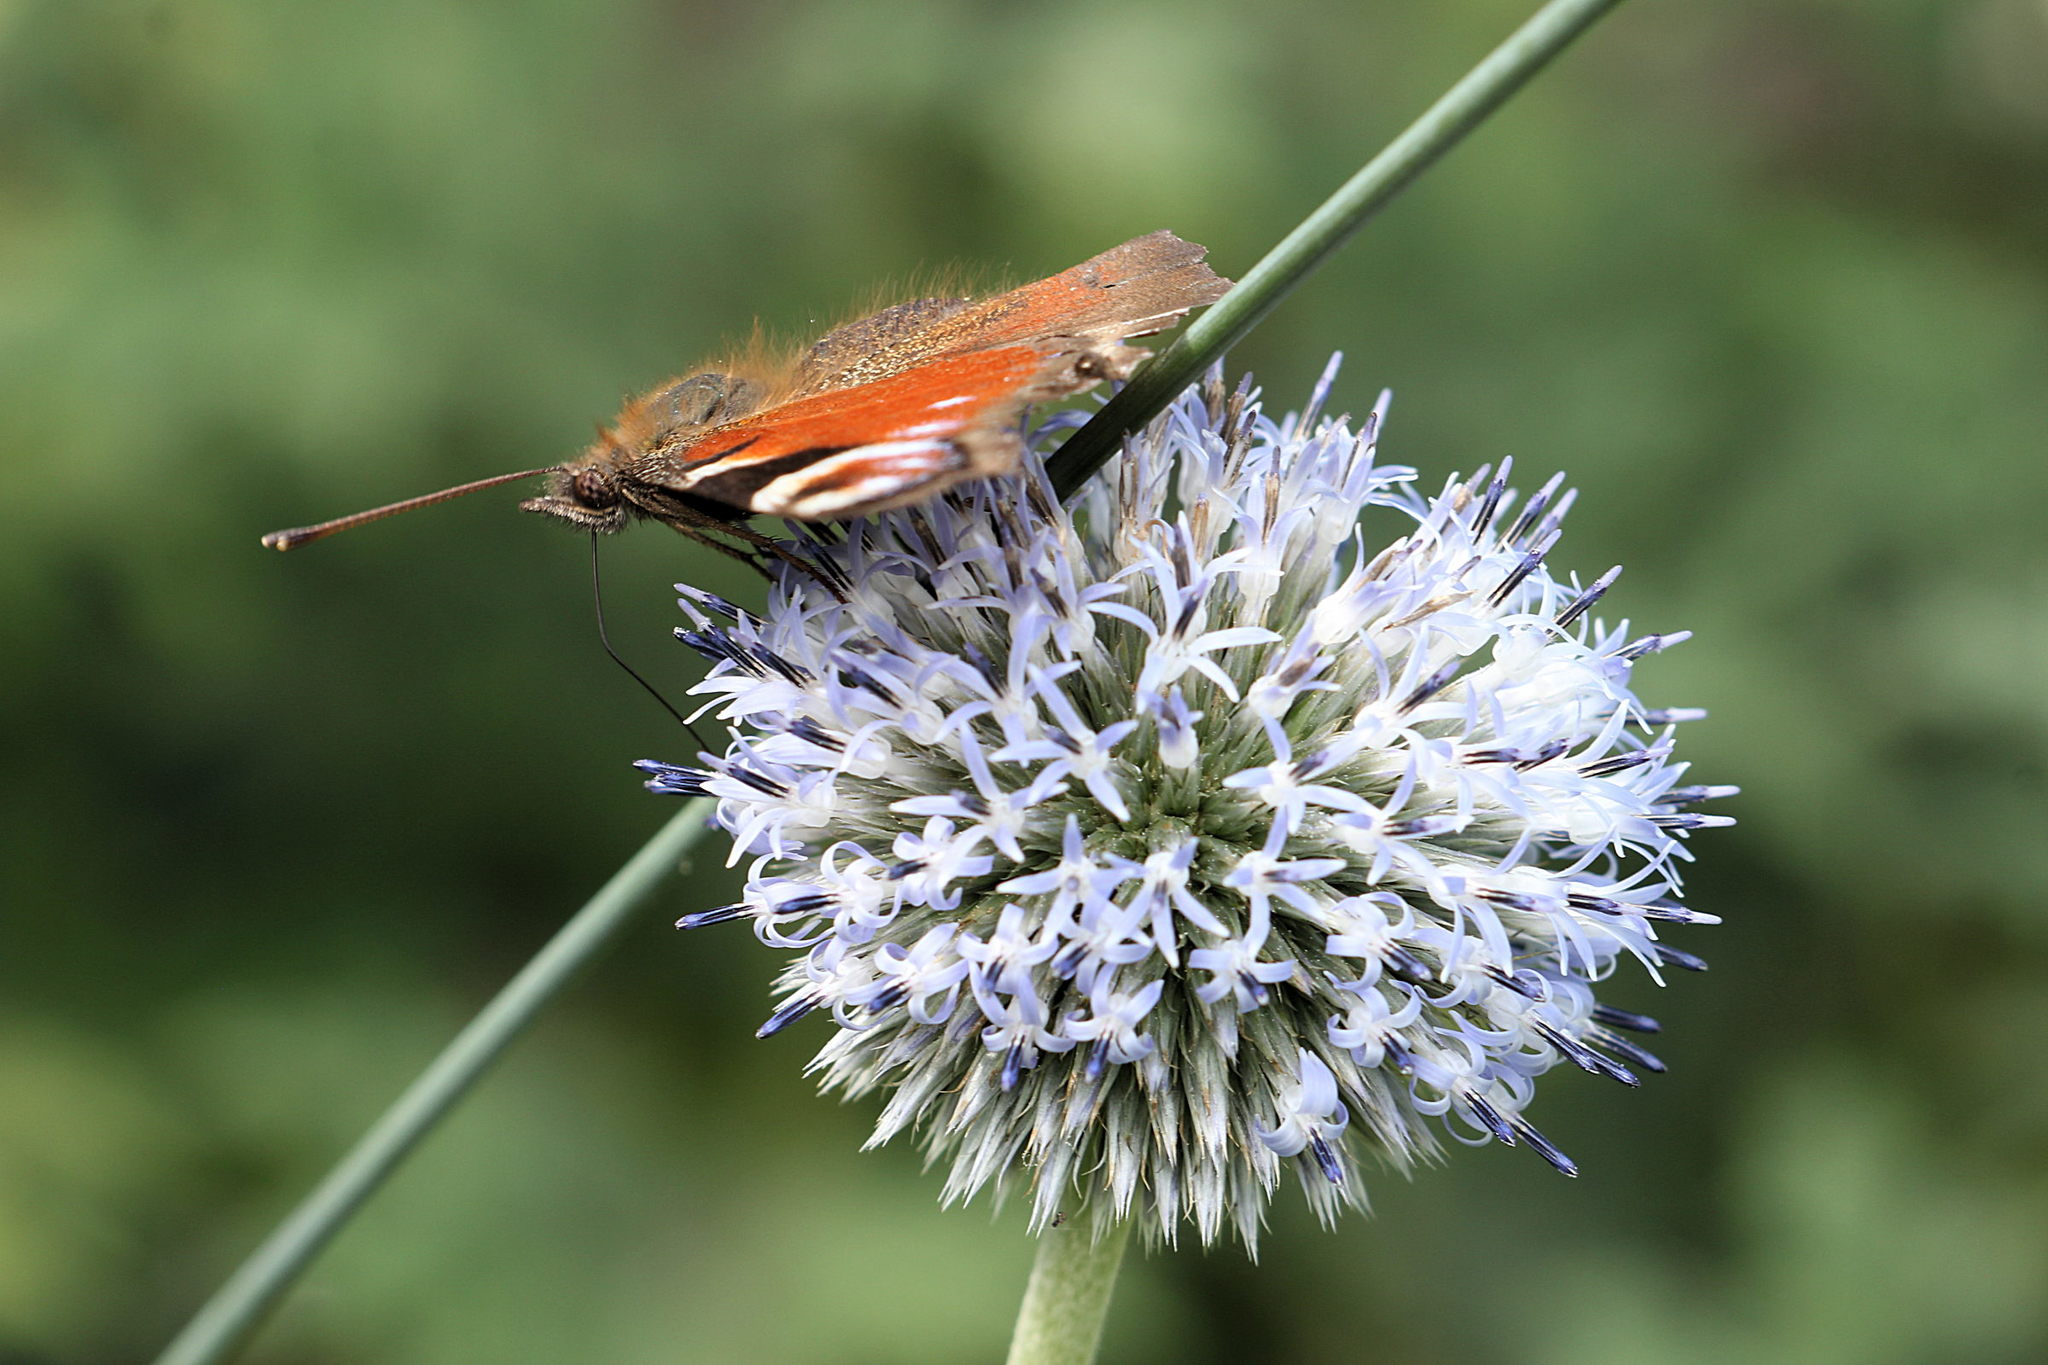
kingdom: Animalia
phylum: Arthropoda
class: Insecta
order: Lepidoptera
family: Nymphalidae
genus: Aglais
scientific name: Aglais io
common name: Peacock
